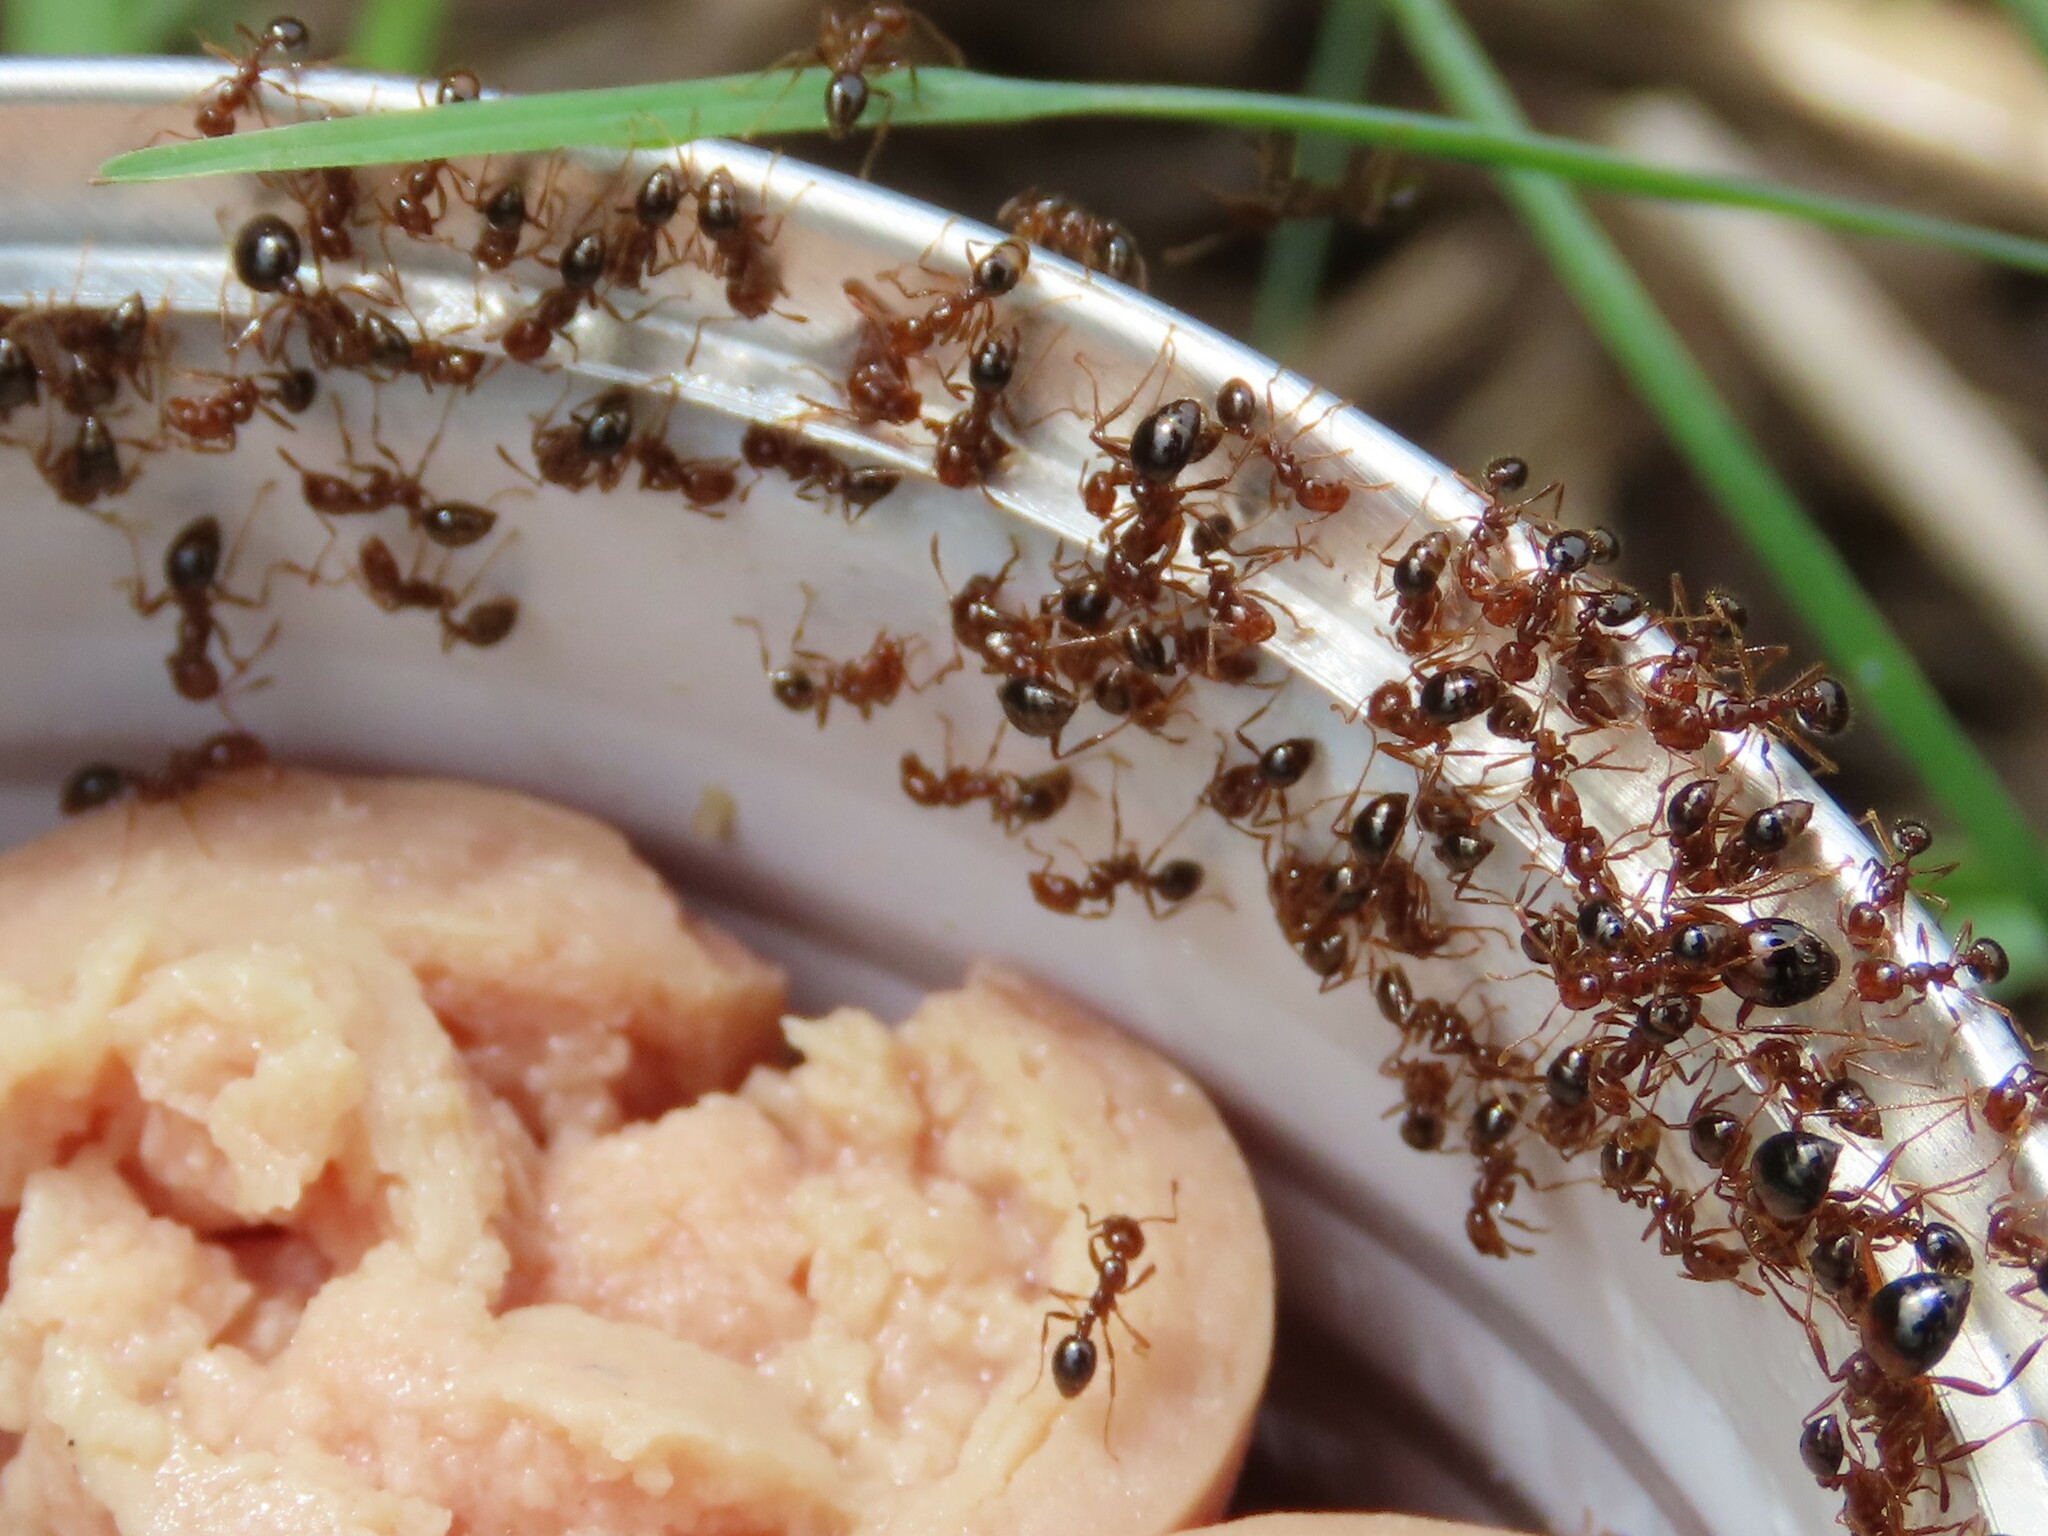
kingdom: Animalia
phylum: Arthropoda
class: Insecta
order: Hymenoptera
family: Formicidae
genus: Solenopsis
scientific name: Solenopsis invicta
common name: Red imported fire ant
